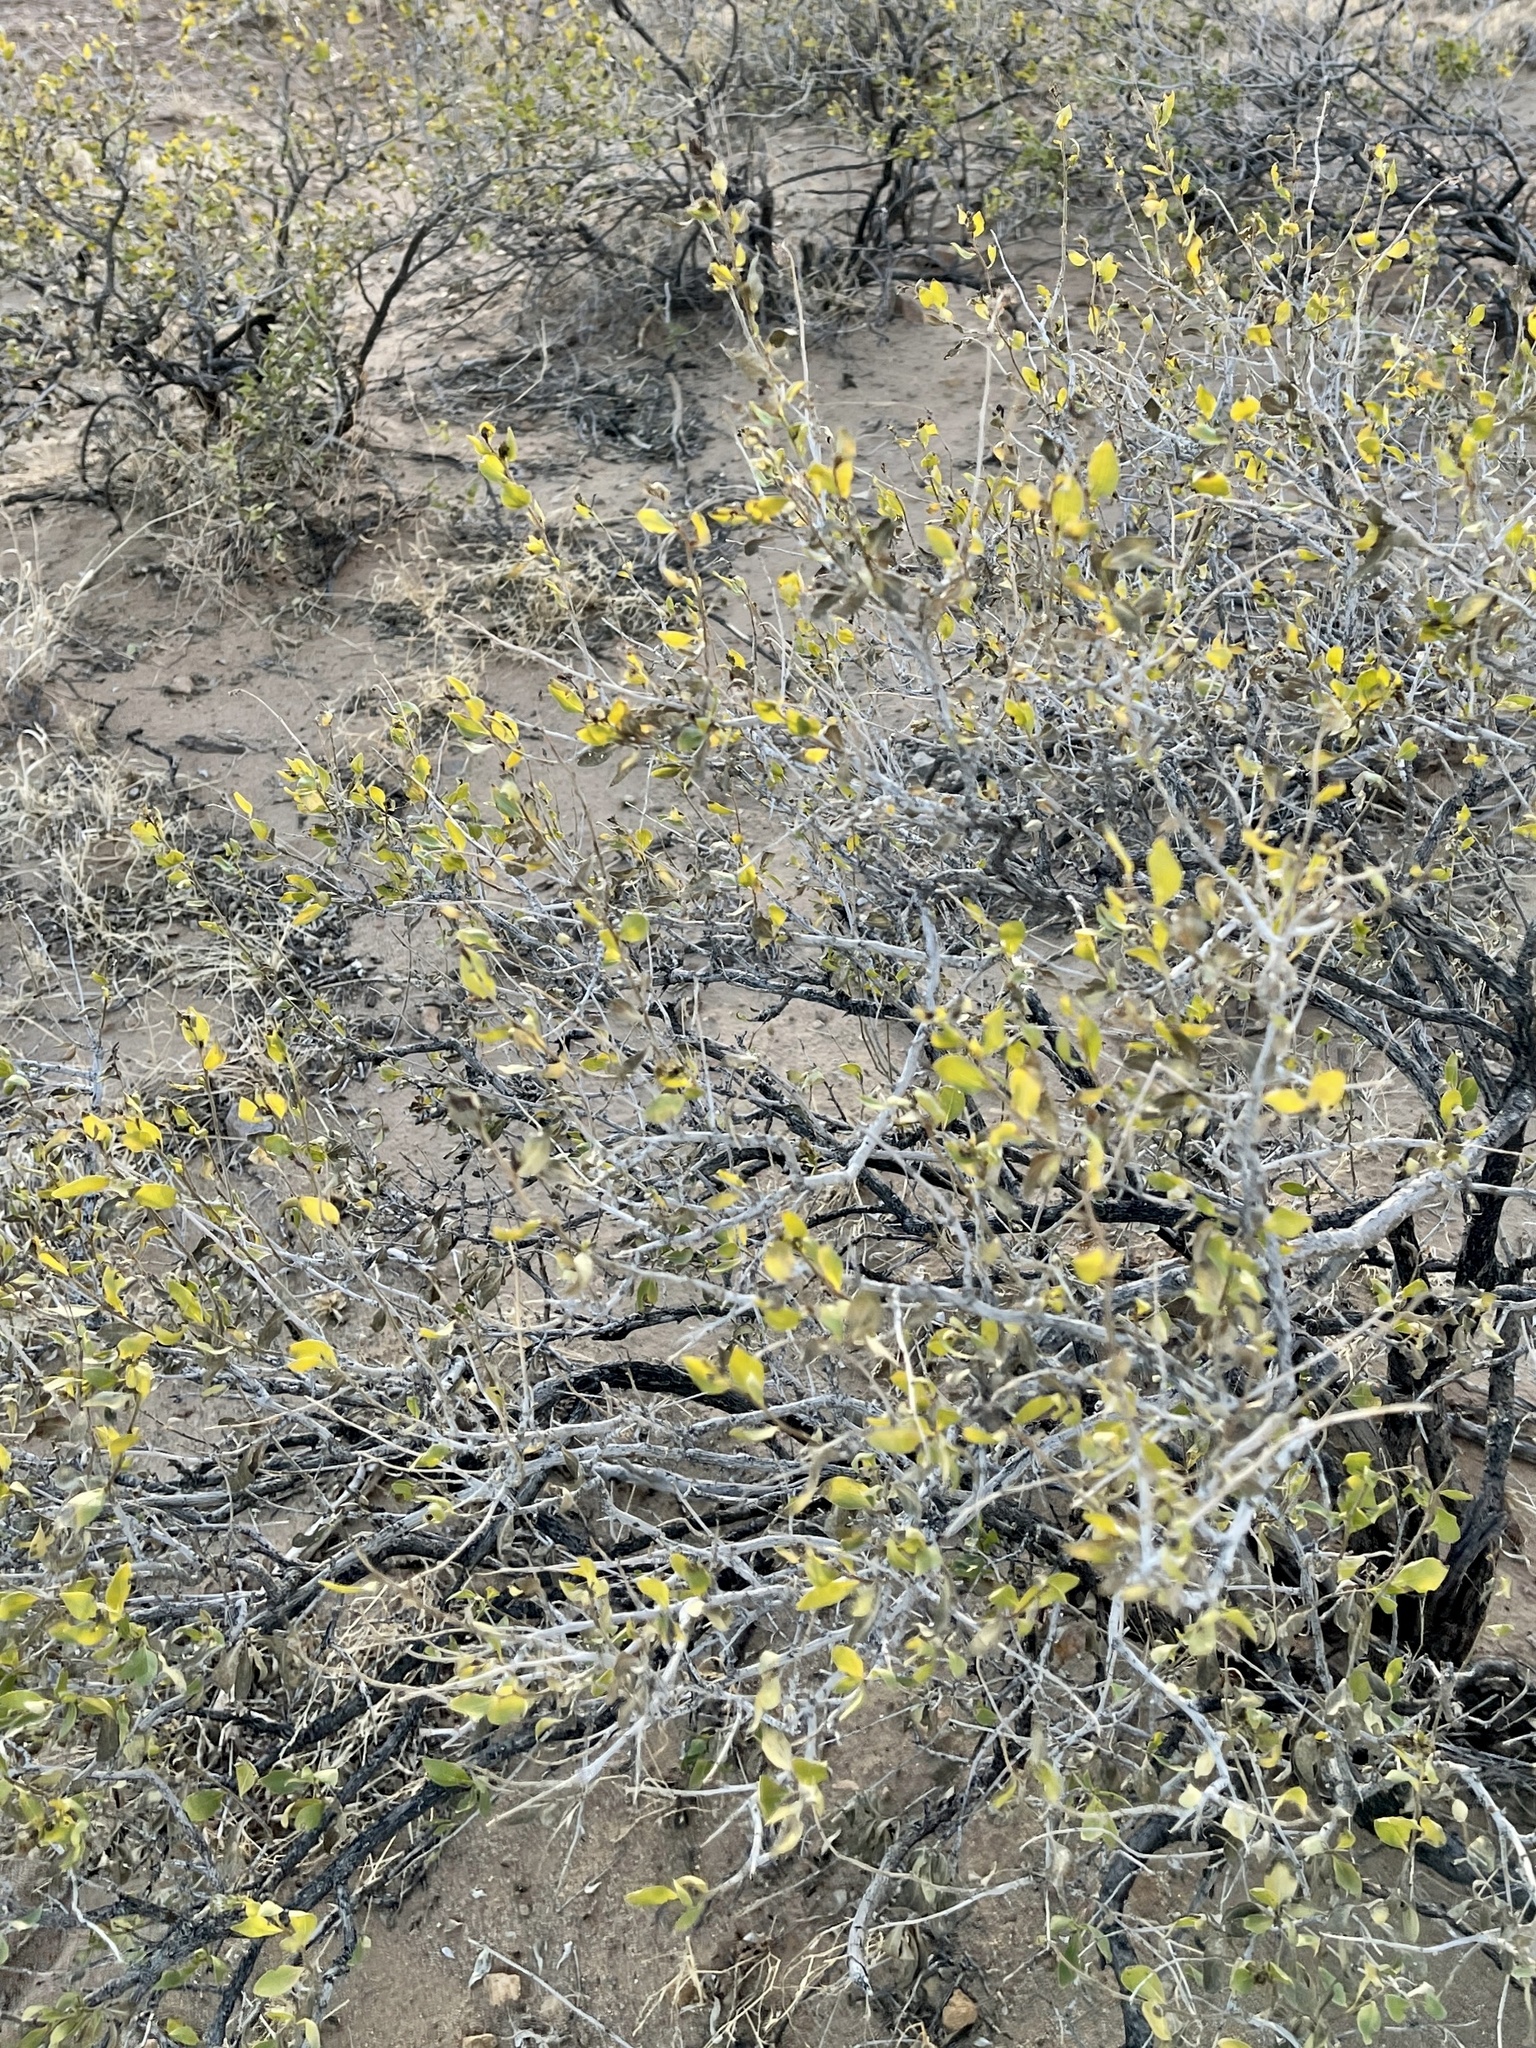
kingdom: Plantae
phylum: Tracheophyta
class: Magnoliopsida
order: Asterales
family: Asteraceae
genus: Flourensia
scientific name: Flourensia cernua
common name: Varnishbush
